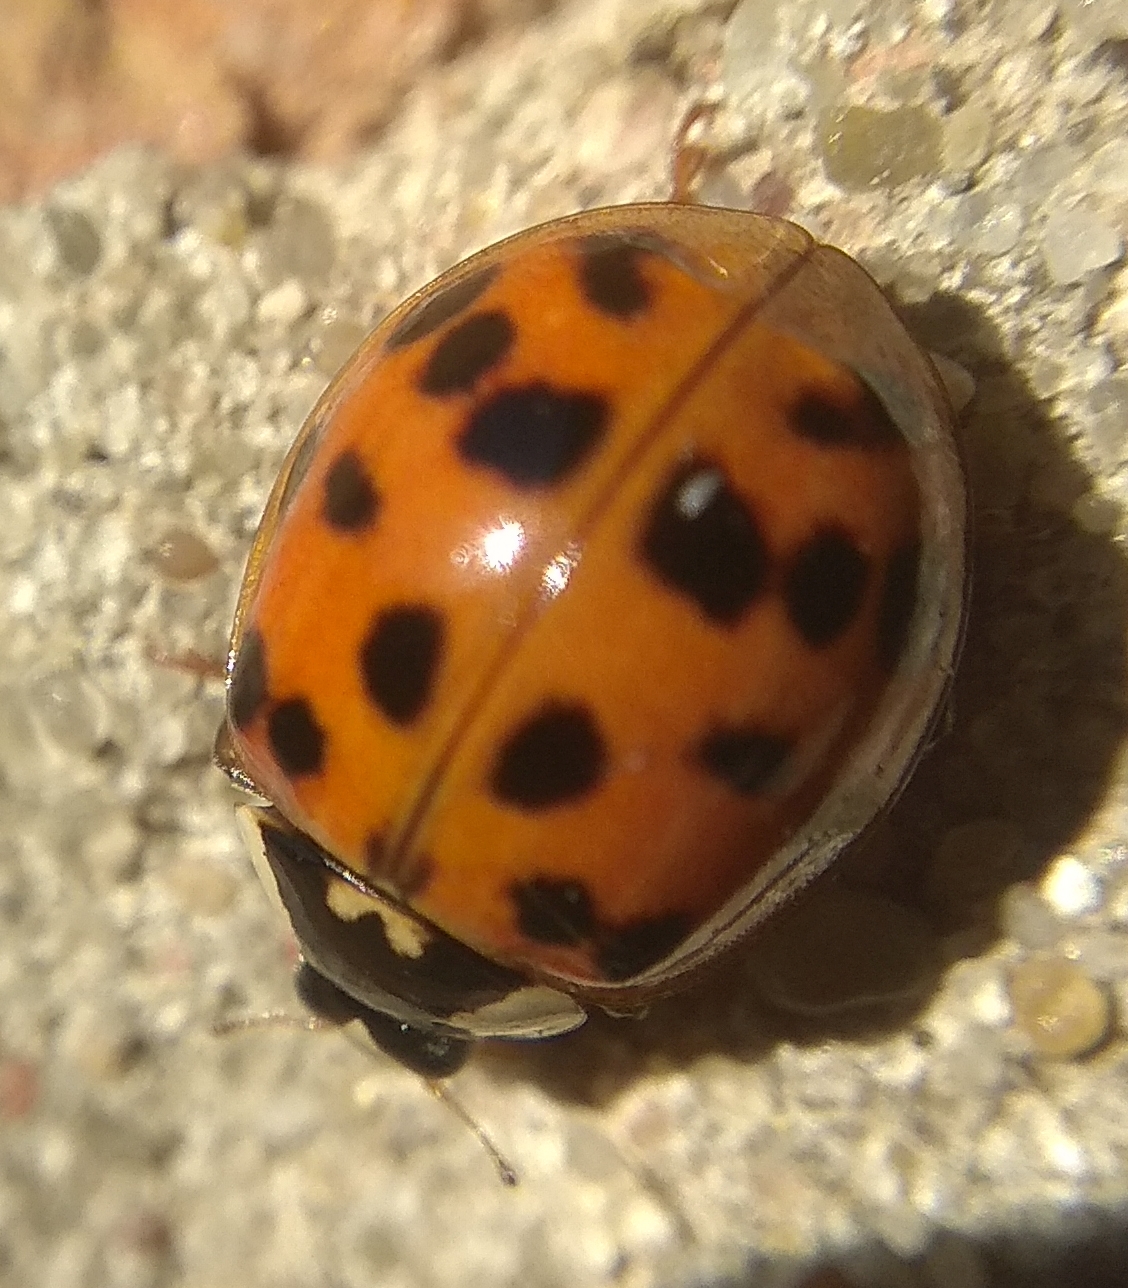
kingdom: Animalia
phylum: Arthropoda
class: Insecta
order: Coleoptera
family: Coccinellidae
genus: Harmonia
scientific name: Harmonia axyridis
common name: Harlequin ladybird
